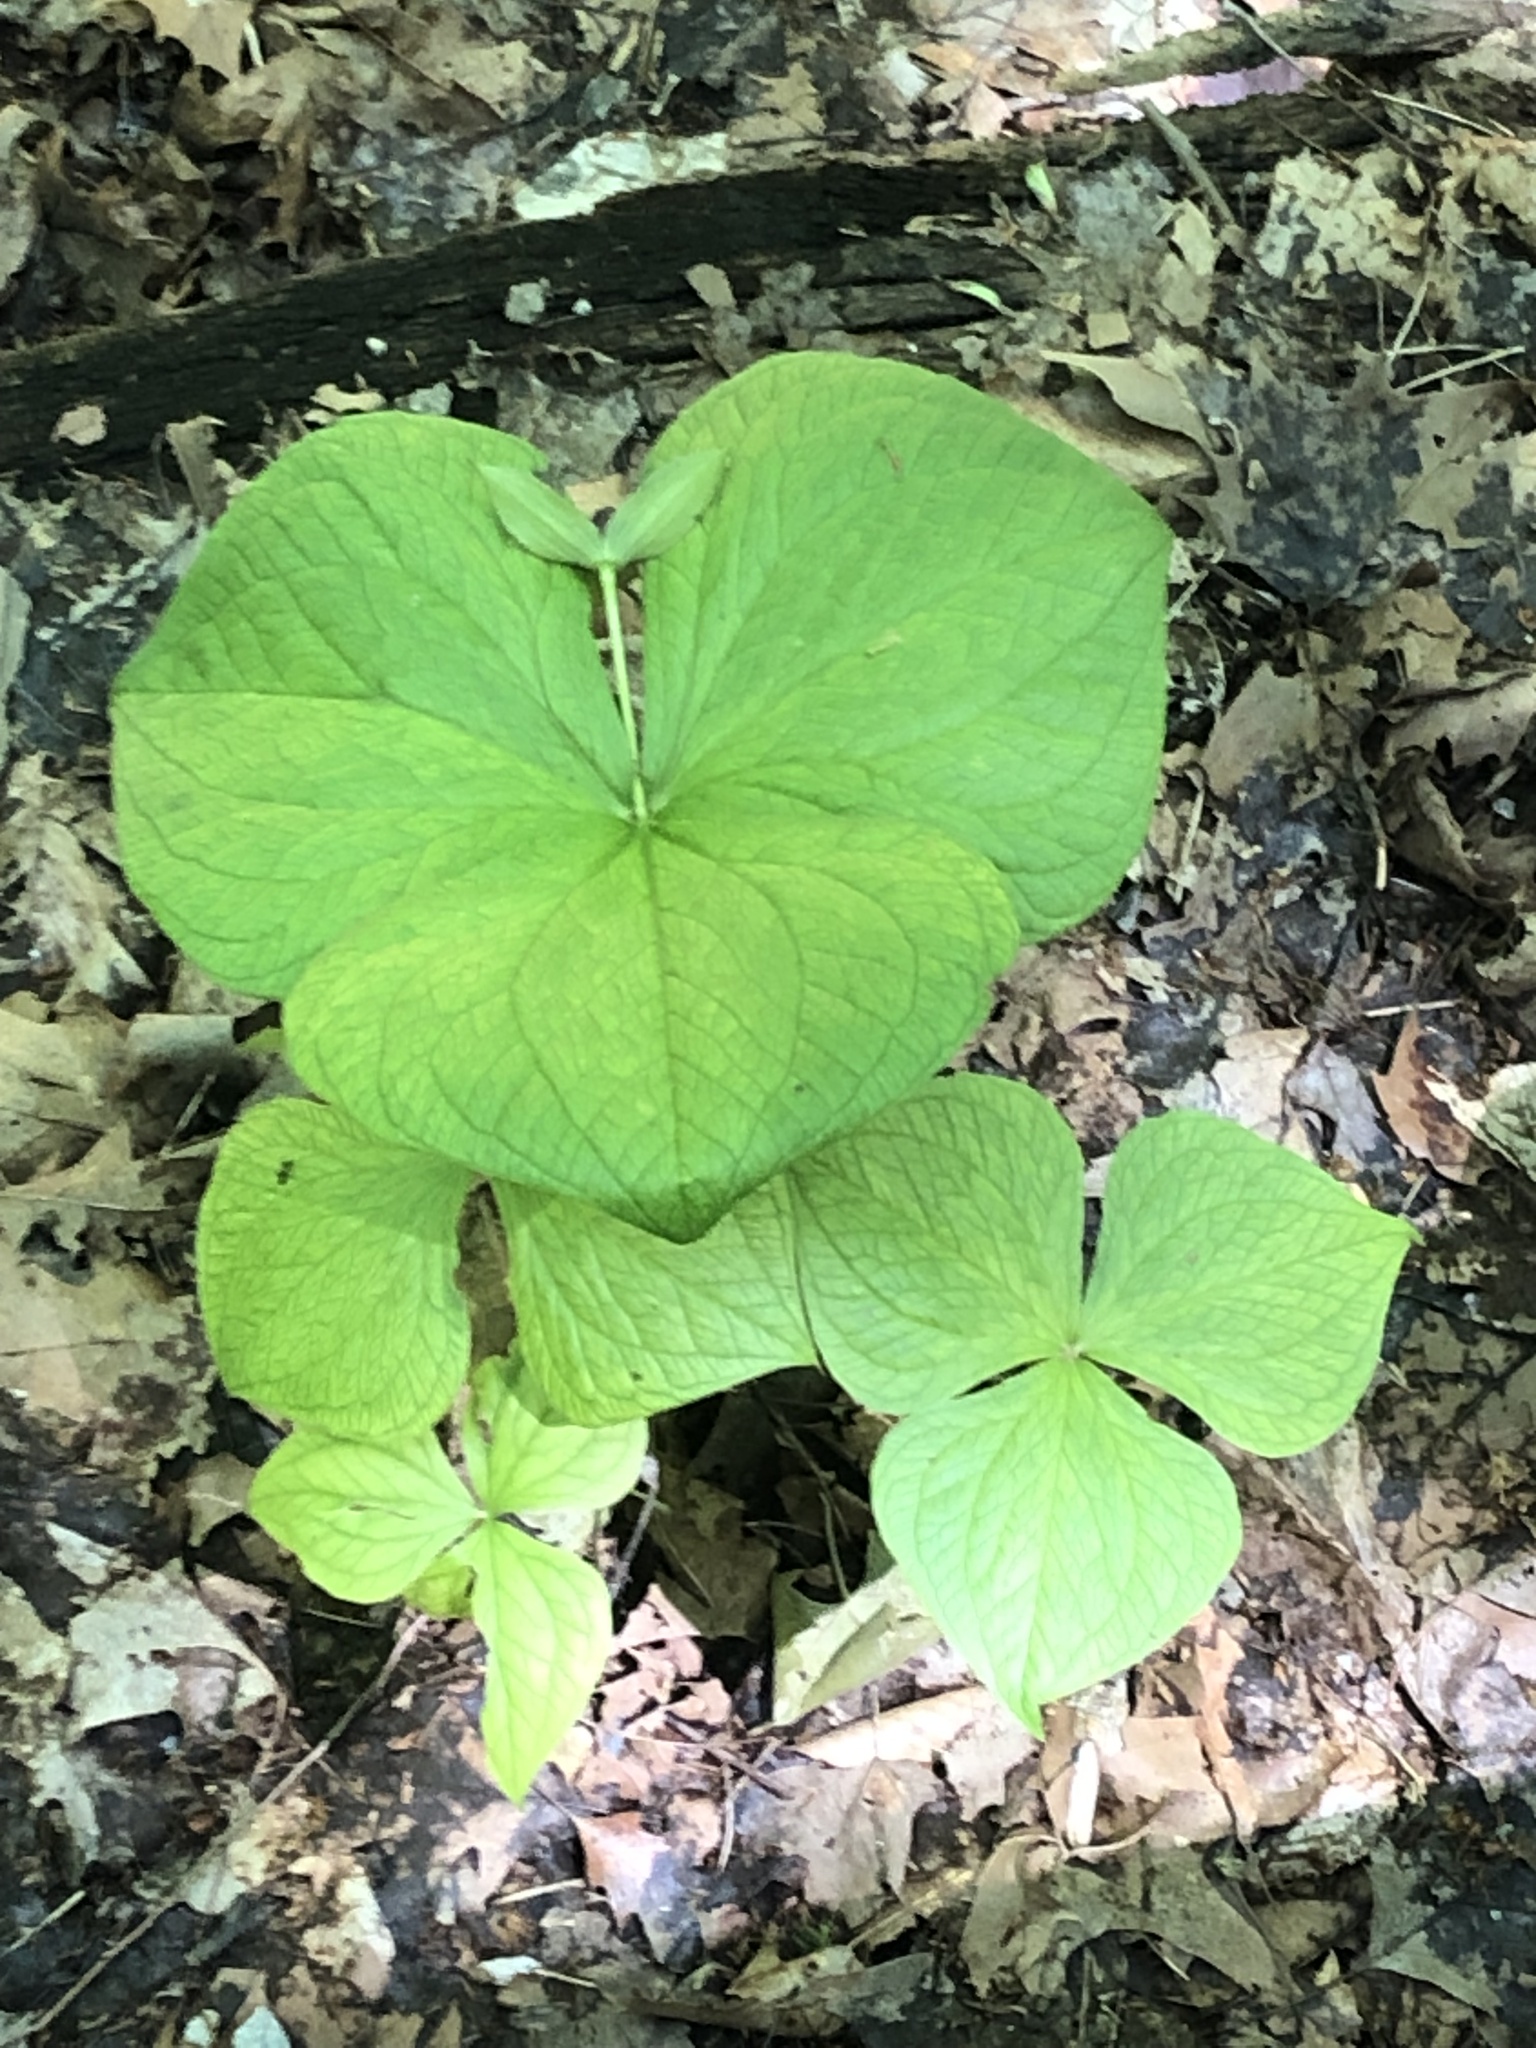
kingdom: Plantae
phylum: Tracheophyta
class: Liliopsida
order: Liliales
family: Melanthiaceae
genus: Trillium
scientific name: Trillium erectum
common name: Purple trillium
